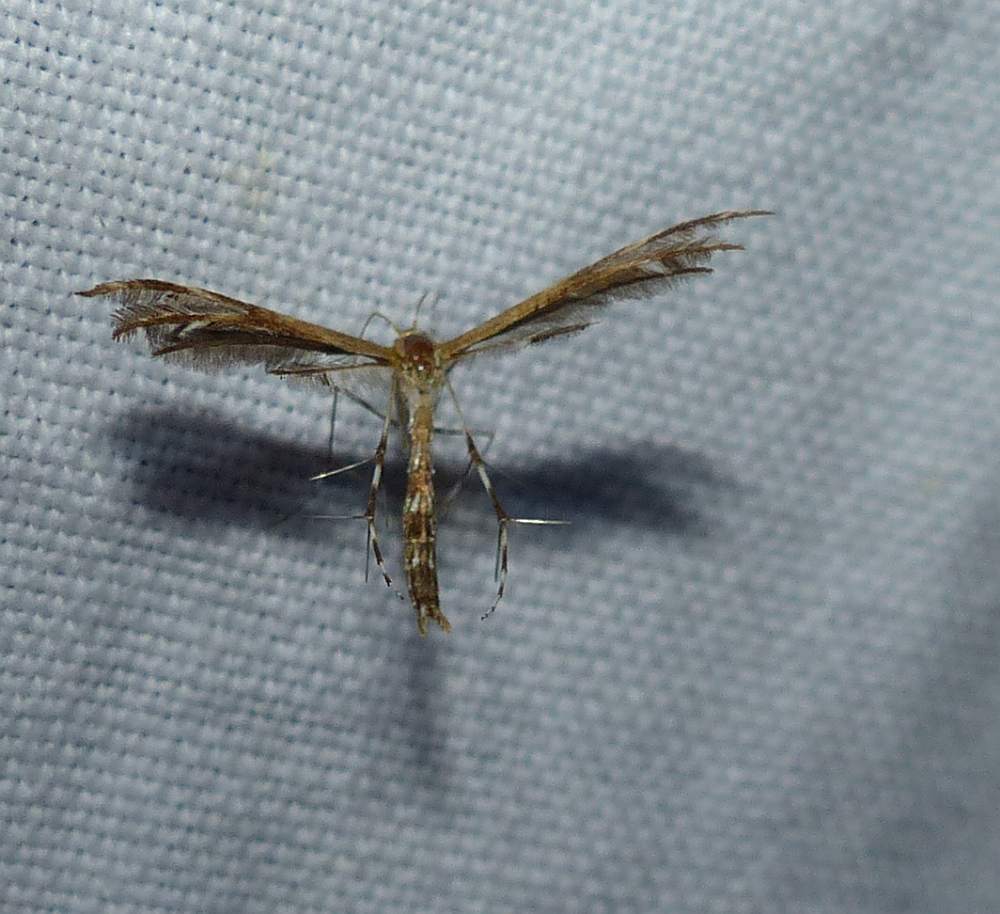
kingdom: Animalia
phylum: Arthropoda
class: Insecta
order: Lepidoptera
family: Pterophoridae
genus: Dejongia
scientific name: Dejongia lobidactylus
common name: Lobed plume moth
